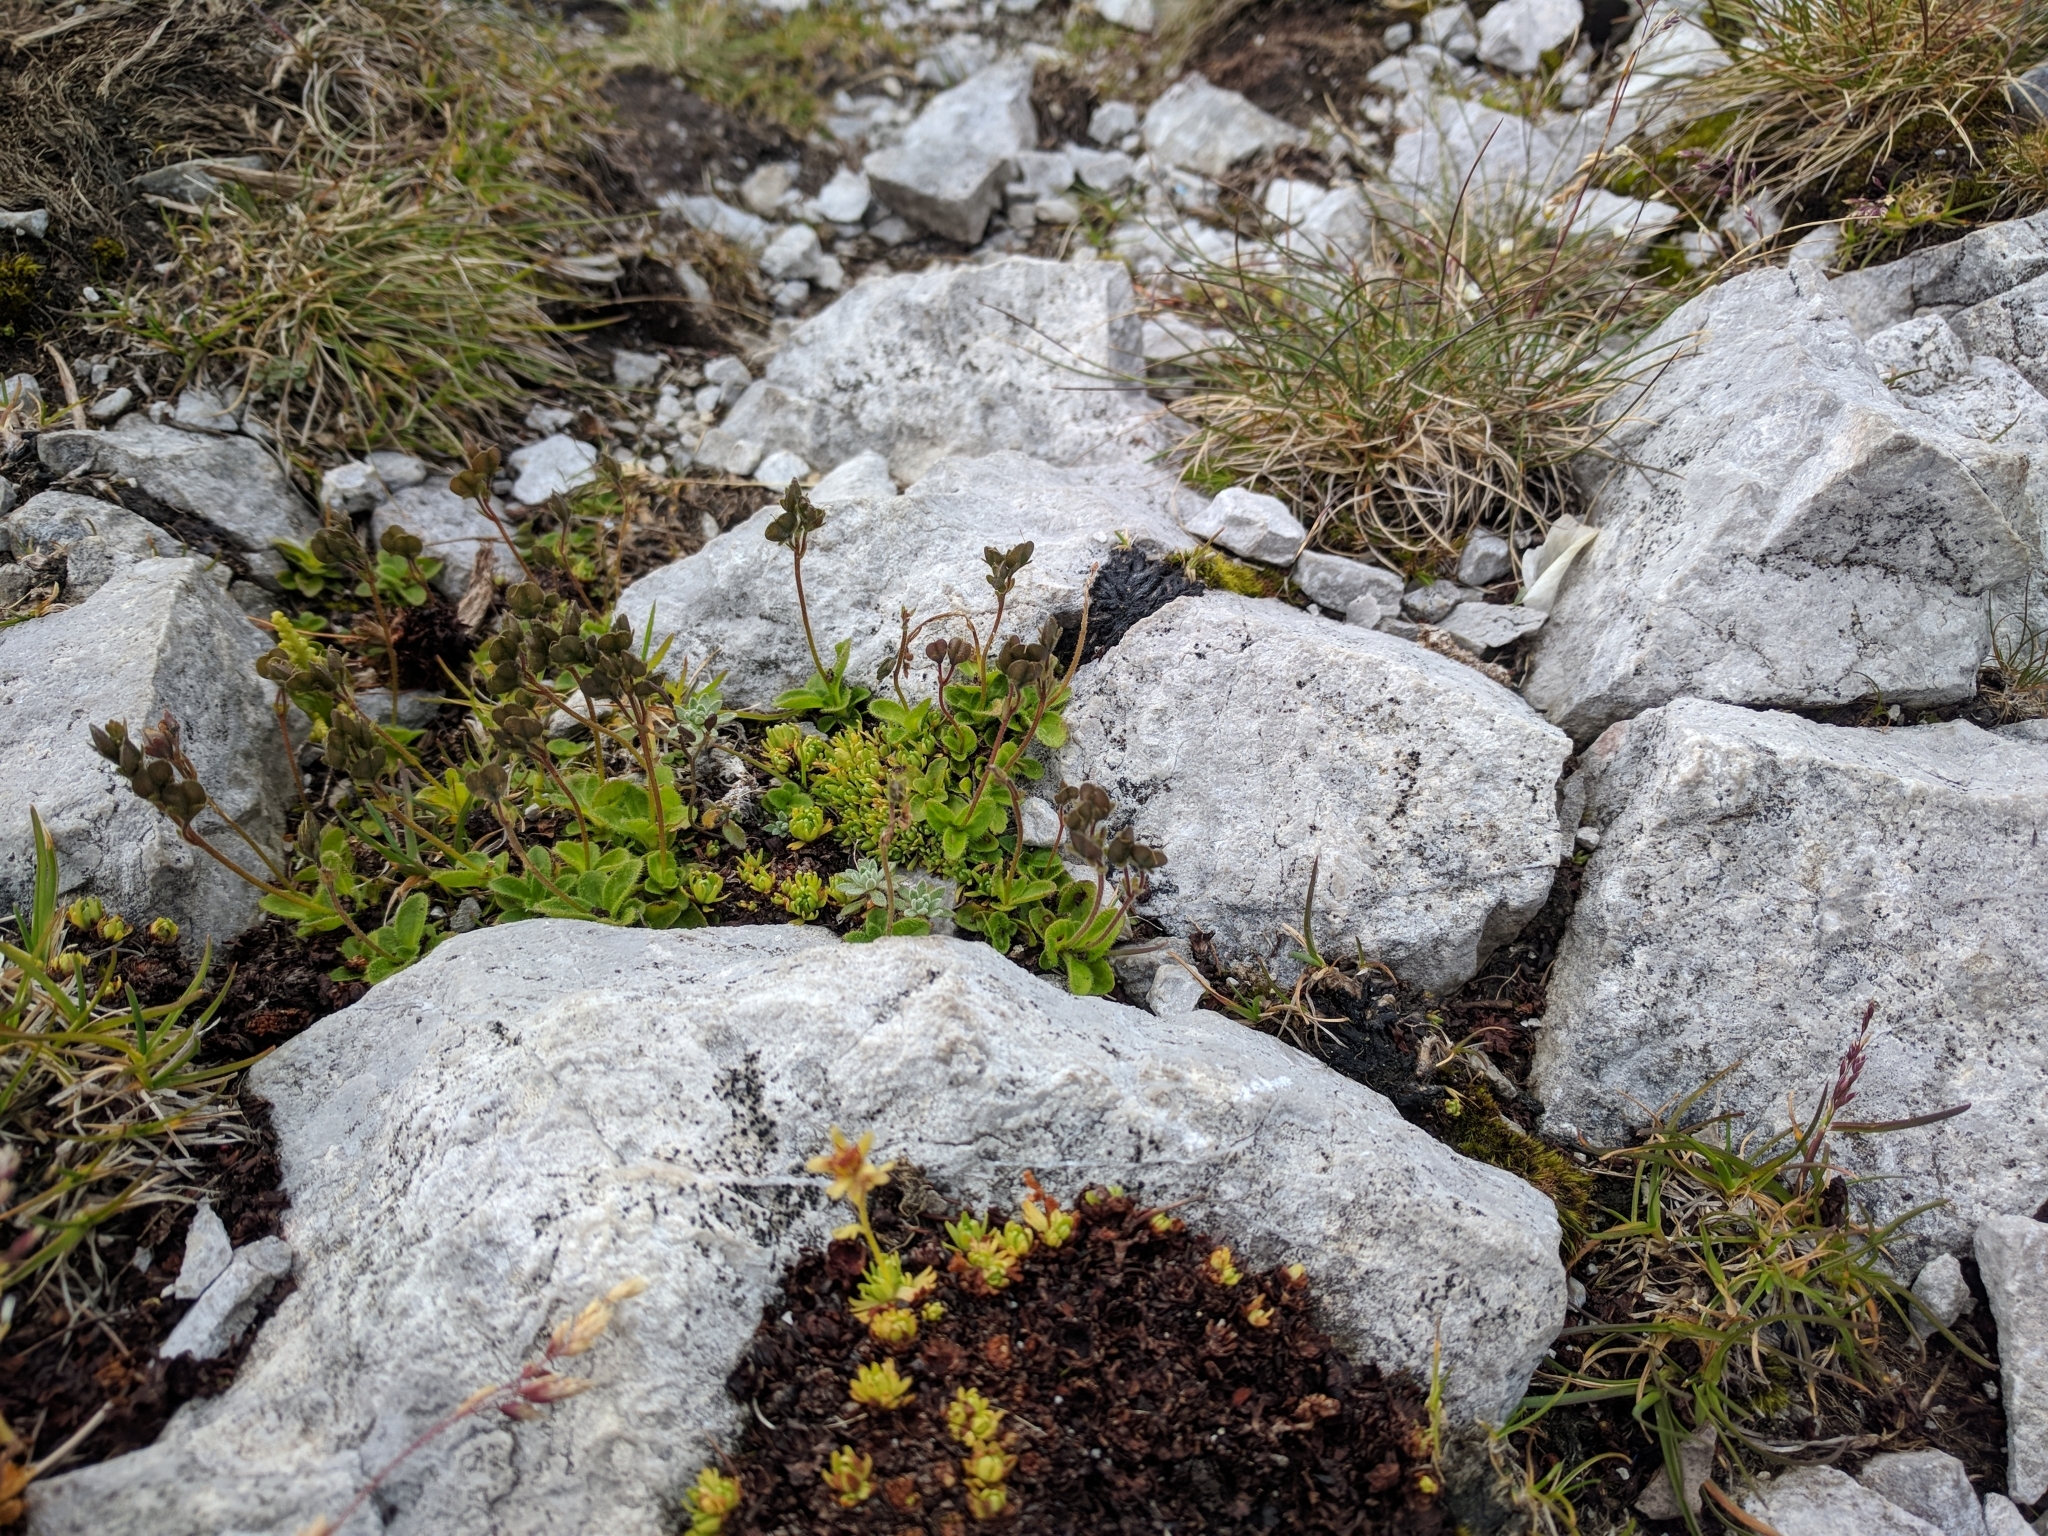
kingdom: Plantae
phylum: Tracheophyta
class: Magnoliopsida
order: Lamiales
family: Plantaginaceae
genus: Veronica
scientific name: Veronica aphylla
